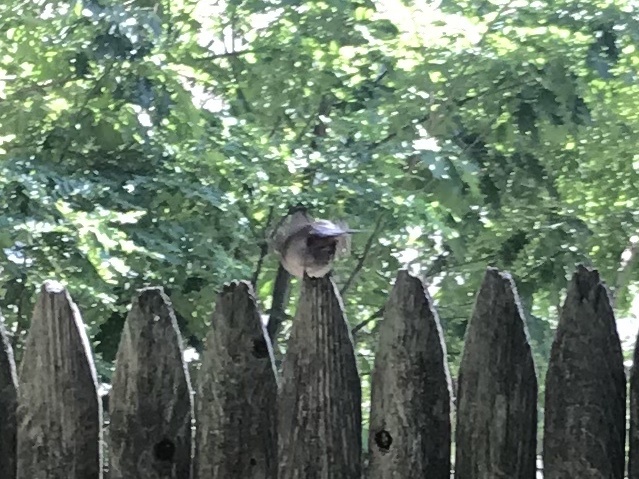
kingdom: Animalia
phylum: Chordata
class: Aves
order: Passeriformes
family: Mimidae
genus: Dumetella
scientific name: Dumetella carolinensis
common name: Gray catbird
